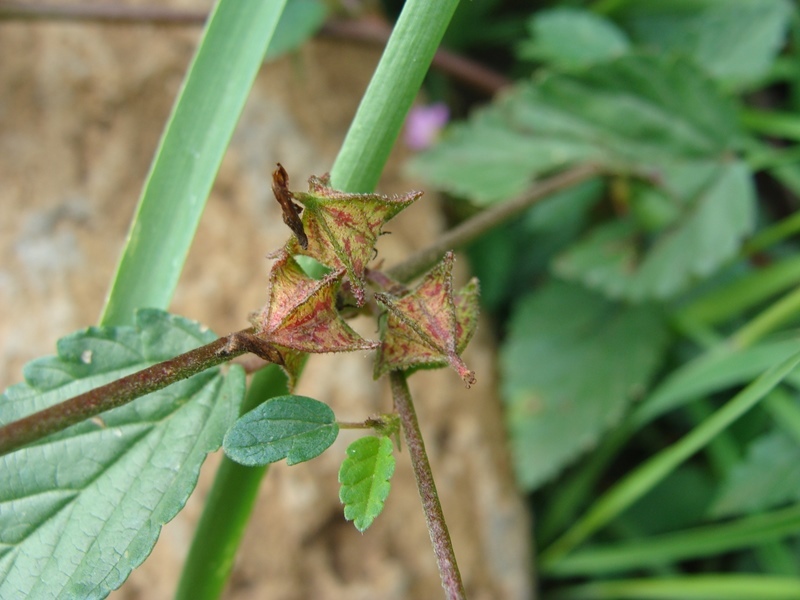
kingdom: Plantae
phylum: Tracheophyta
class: Magnoliopsida
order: Malvales
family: Malvaceae
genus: Melochia
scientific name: Melochia pyramidata
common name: Pyramidflower
